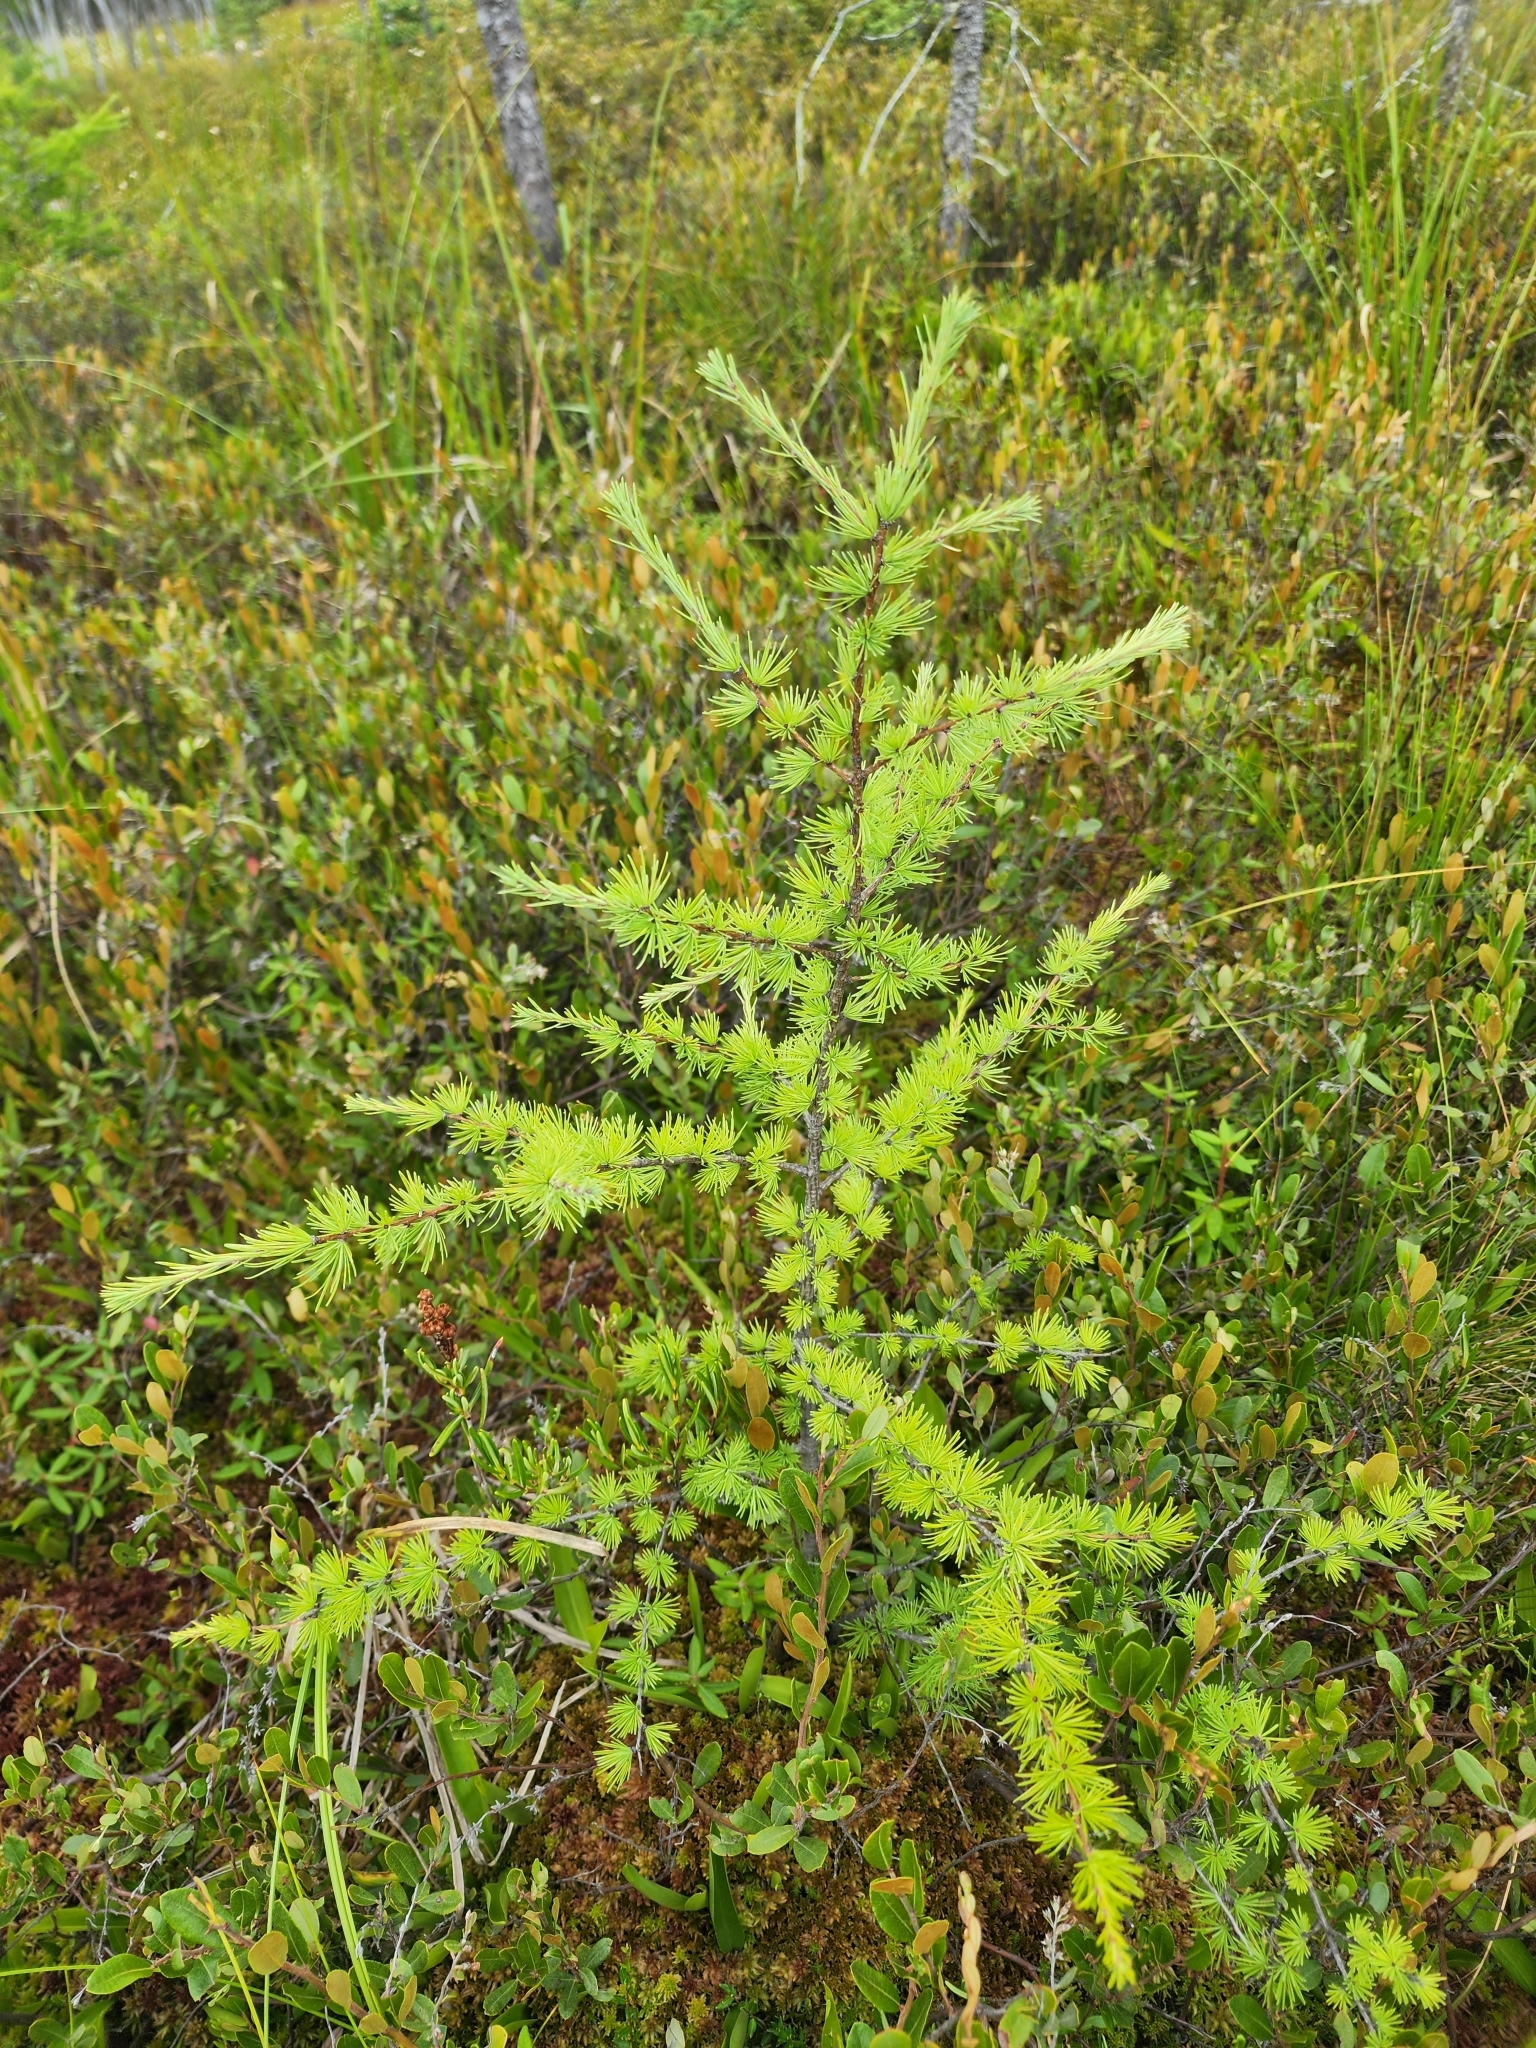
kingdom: Plantae
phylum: Tracheophyta
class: Pinopsida
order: Pinales
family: Pinaceae
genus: Larix
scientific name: Larix laricina
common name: American larch
